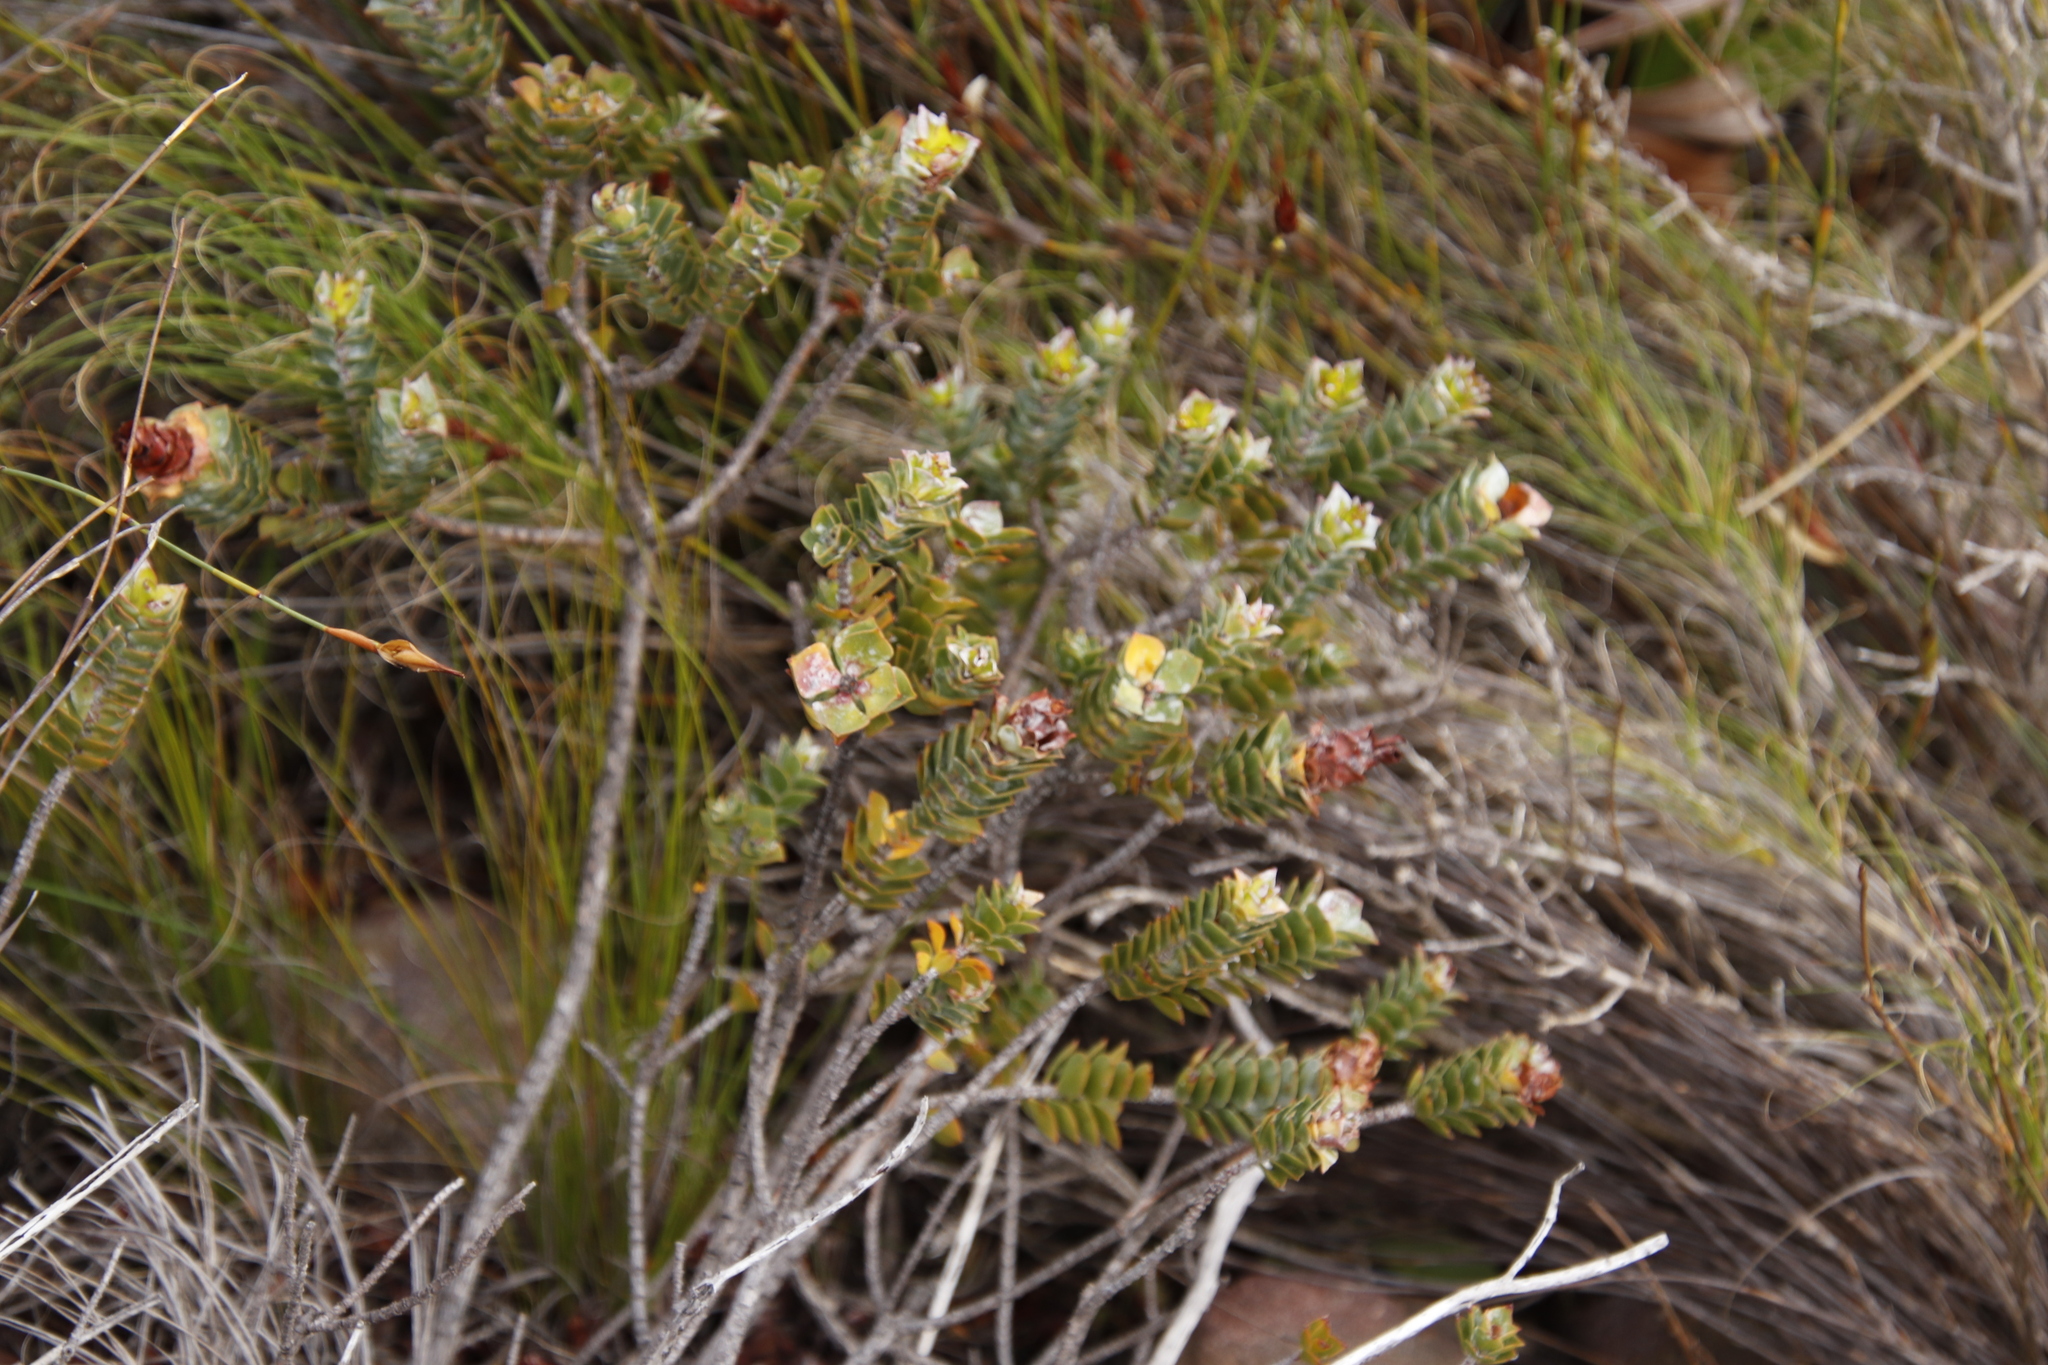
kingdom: Plantae
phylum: Tracheophyta
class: Magnoliopsida
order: Myrtales
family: Penaeaceae
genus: Saltera
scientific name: Saltera sarcocolla
